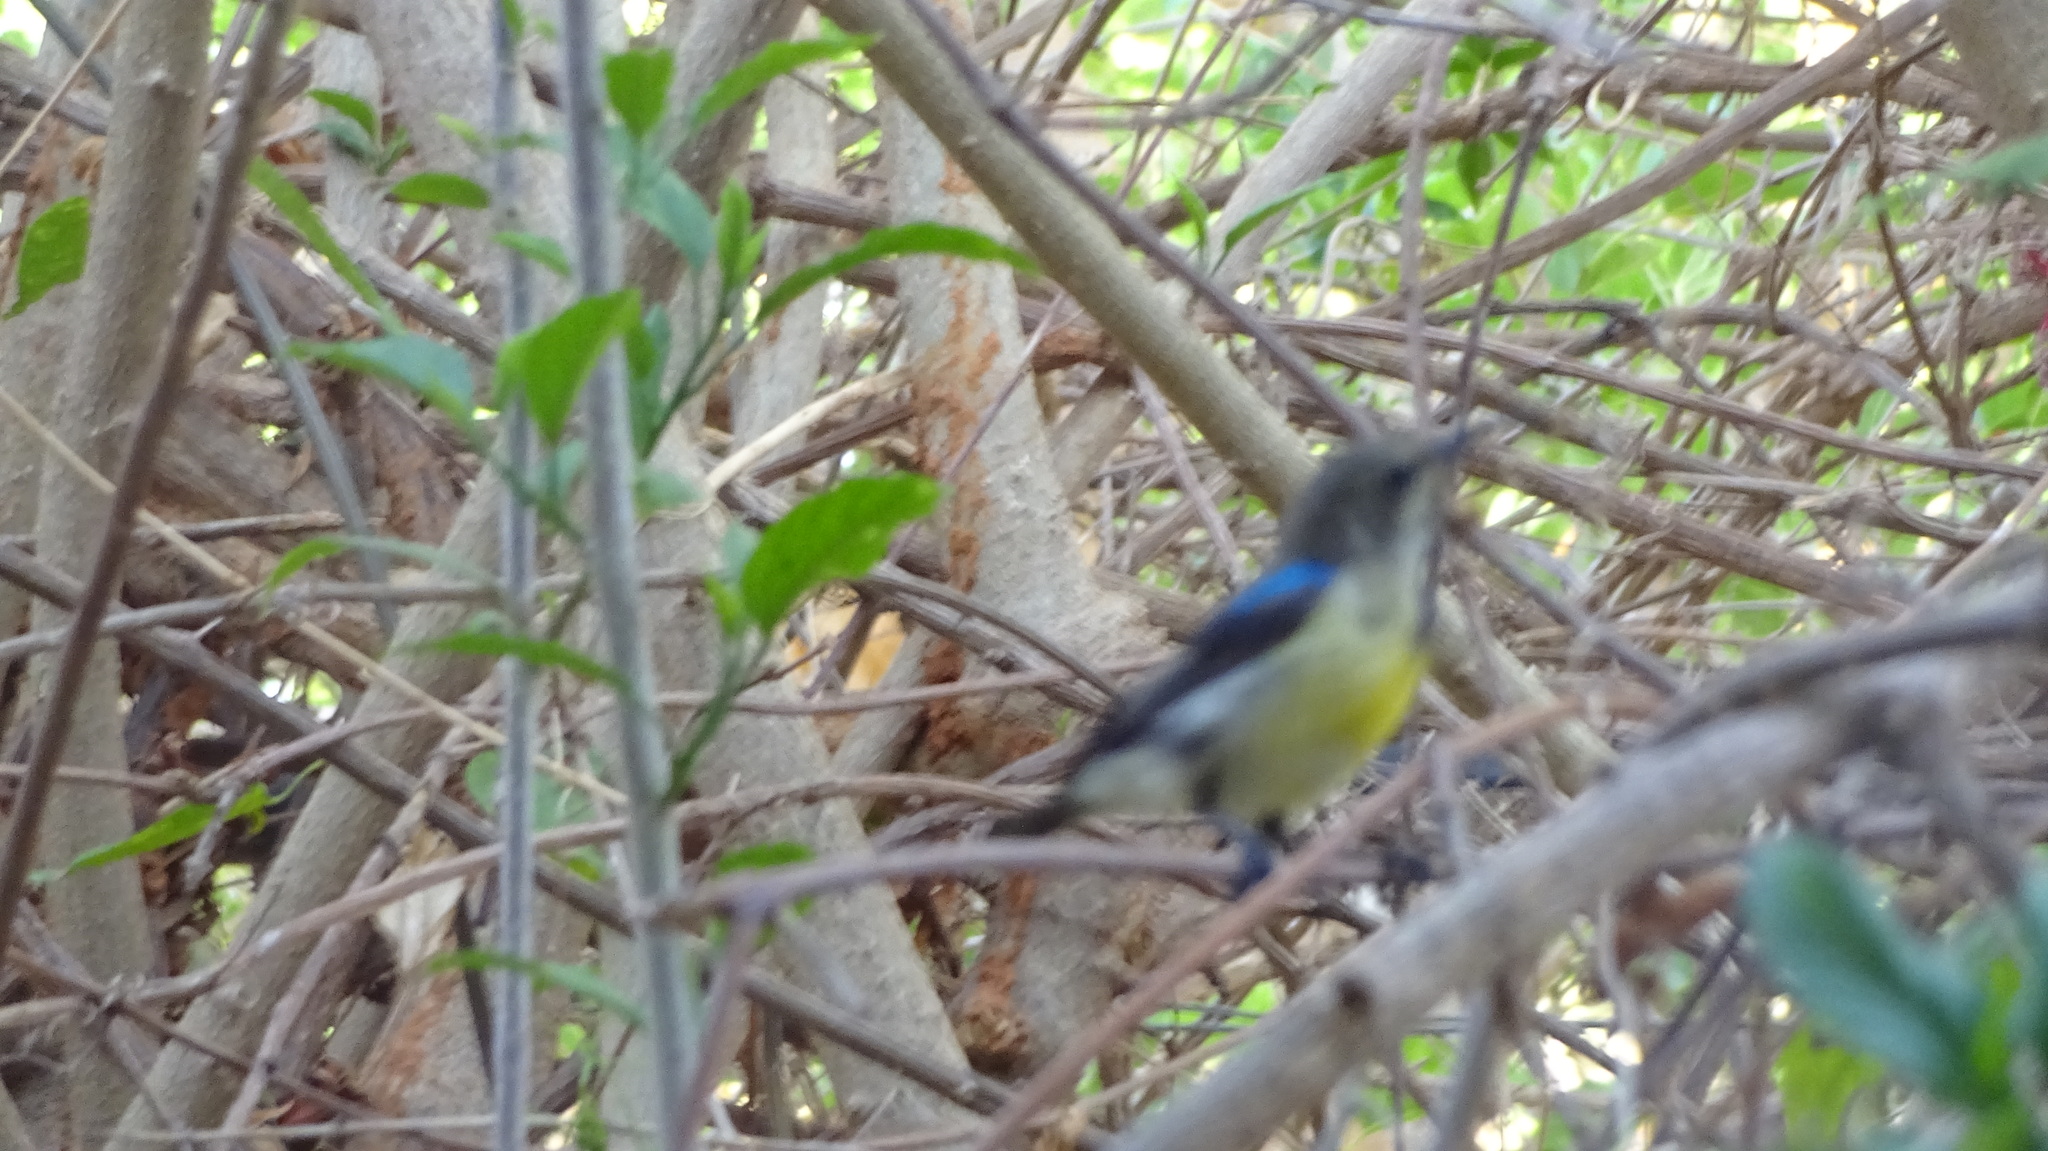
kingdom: Animalia
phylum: Chordata
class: Aves
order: Passeriformes
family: Nectariniidae
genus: Cinnyris
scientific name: Cinnyris venustus
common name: Variable sunbird
